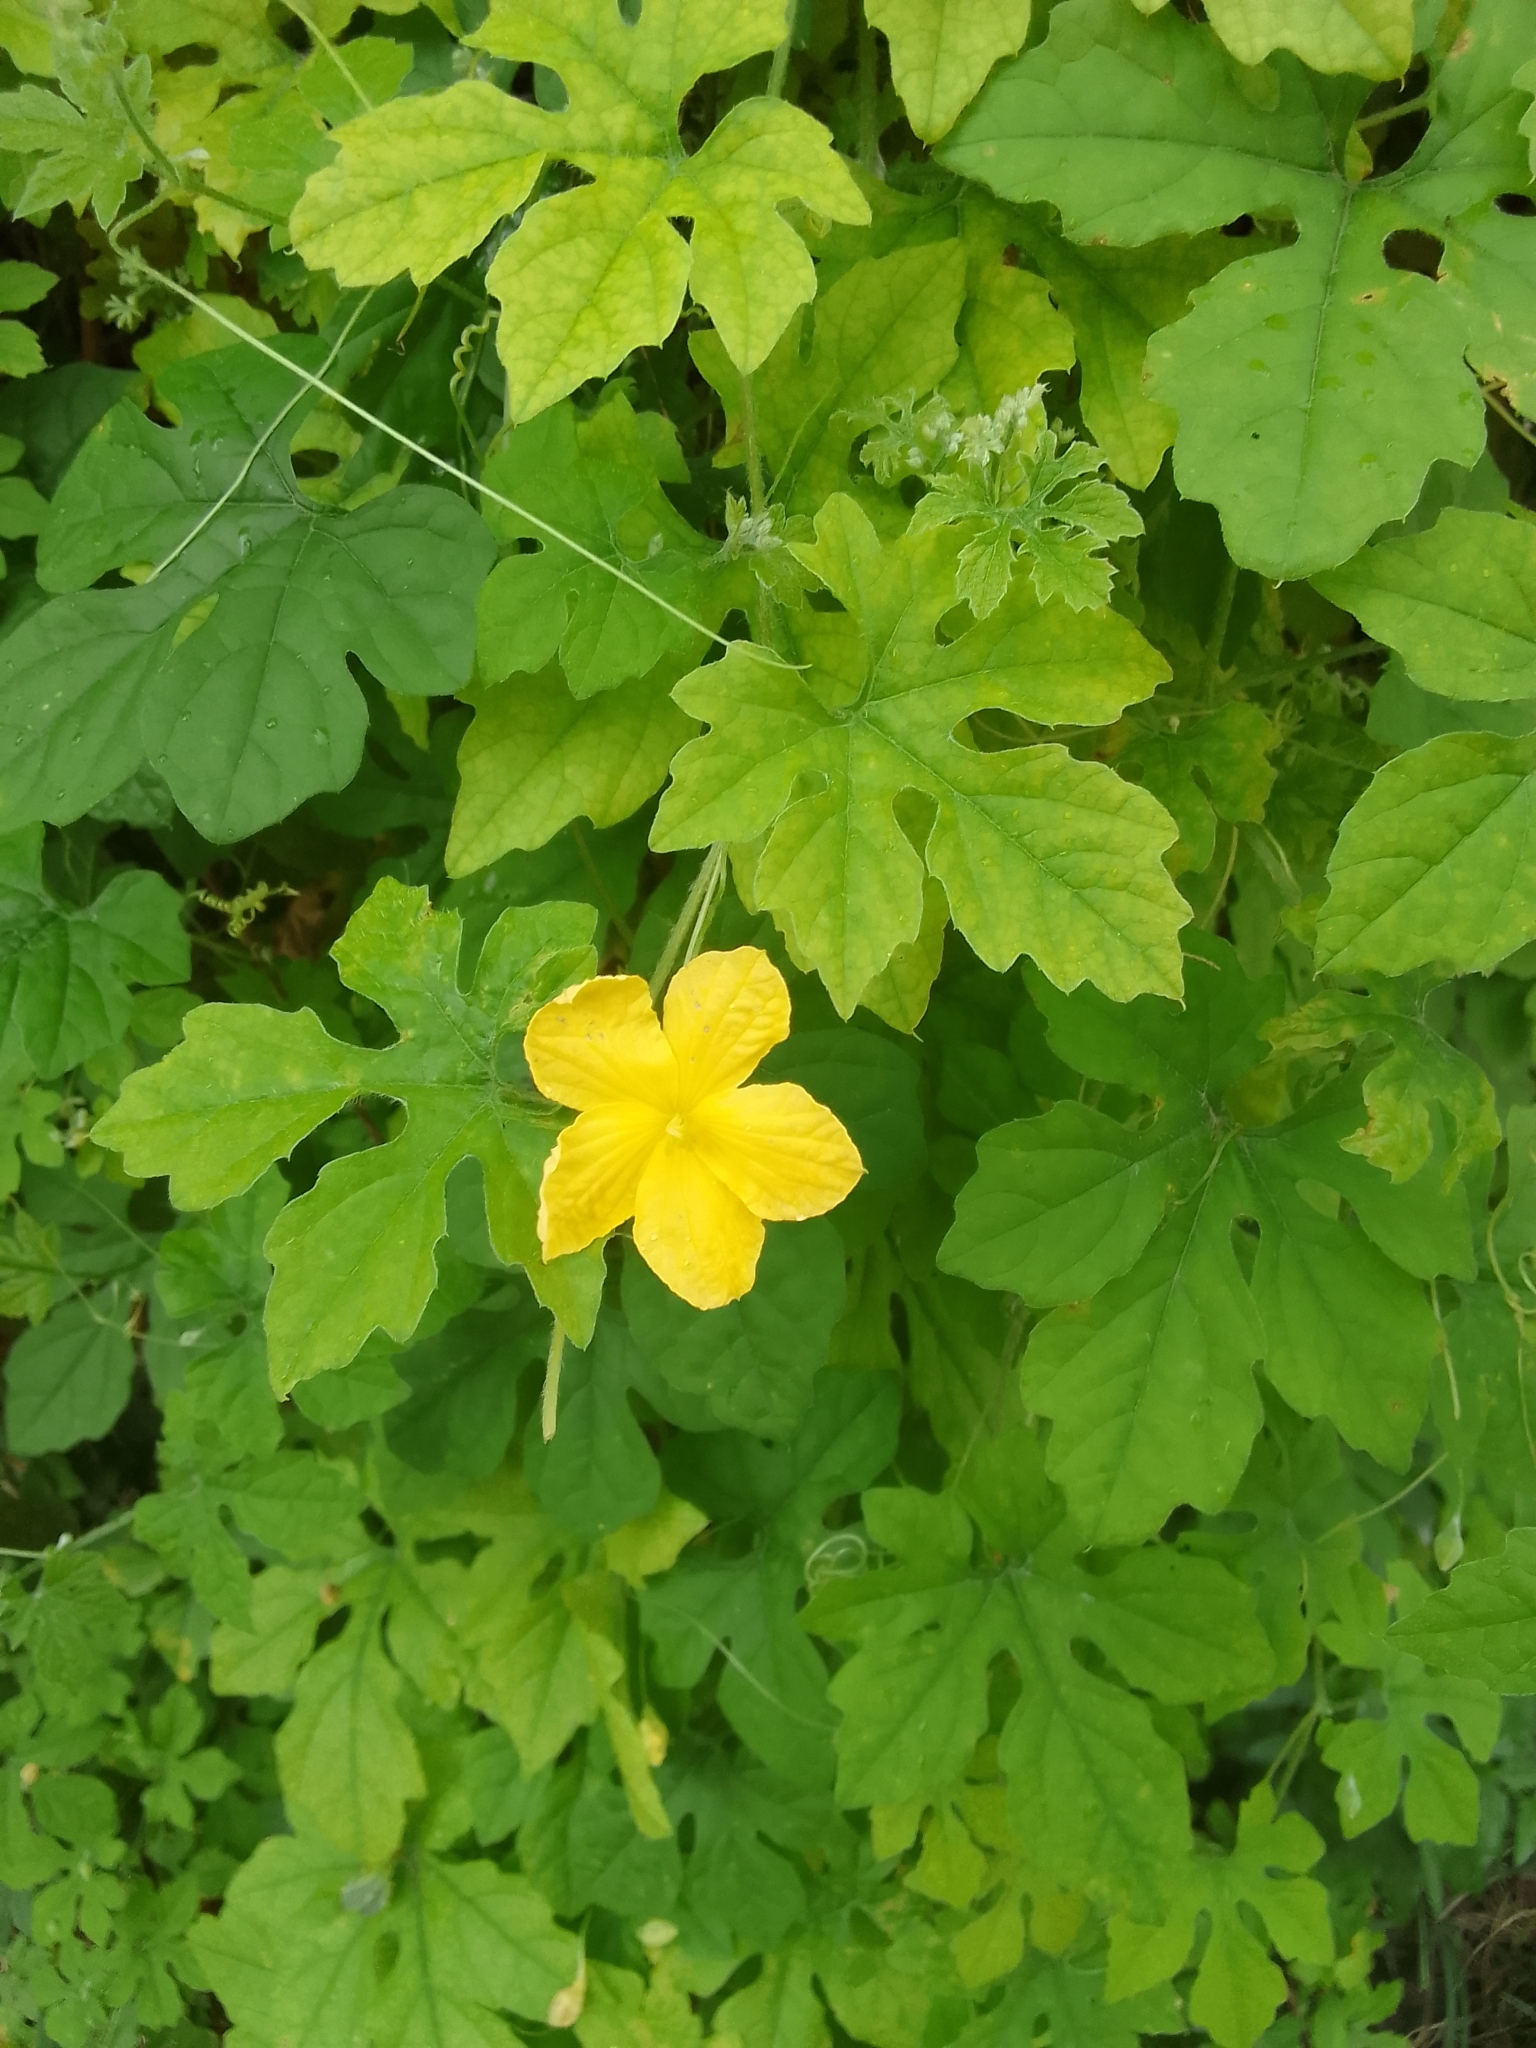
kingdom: Plantae
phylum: Tracheophyta
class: Magnoliopsida
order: Cucurbitales
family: Cucurbitaceae
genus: Momordica
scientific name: Momordica charantia
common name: Balsampear
